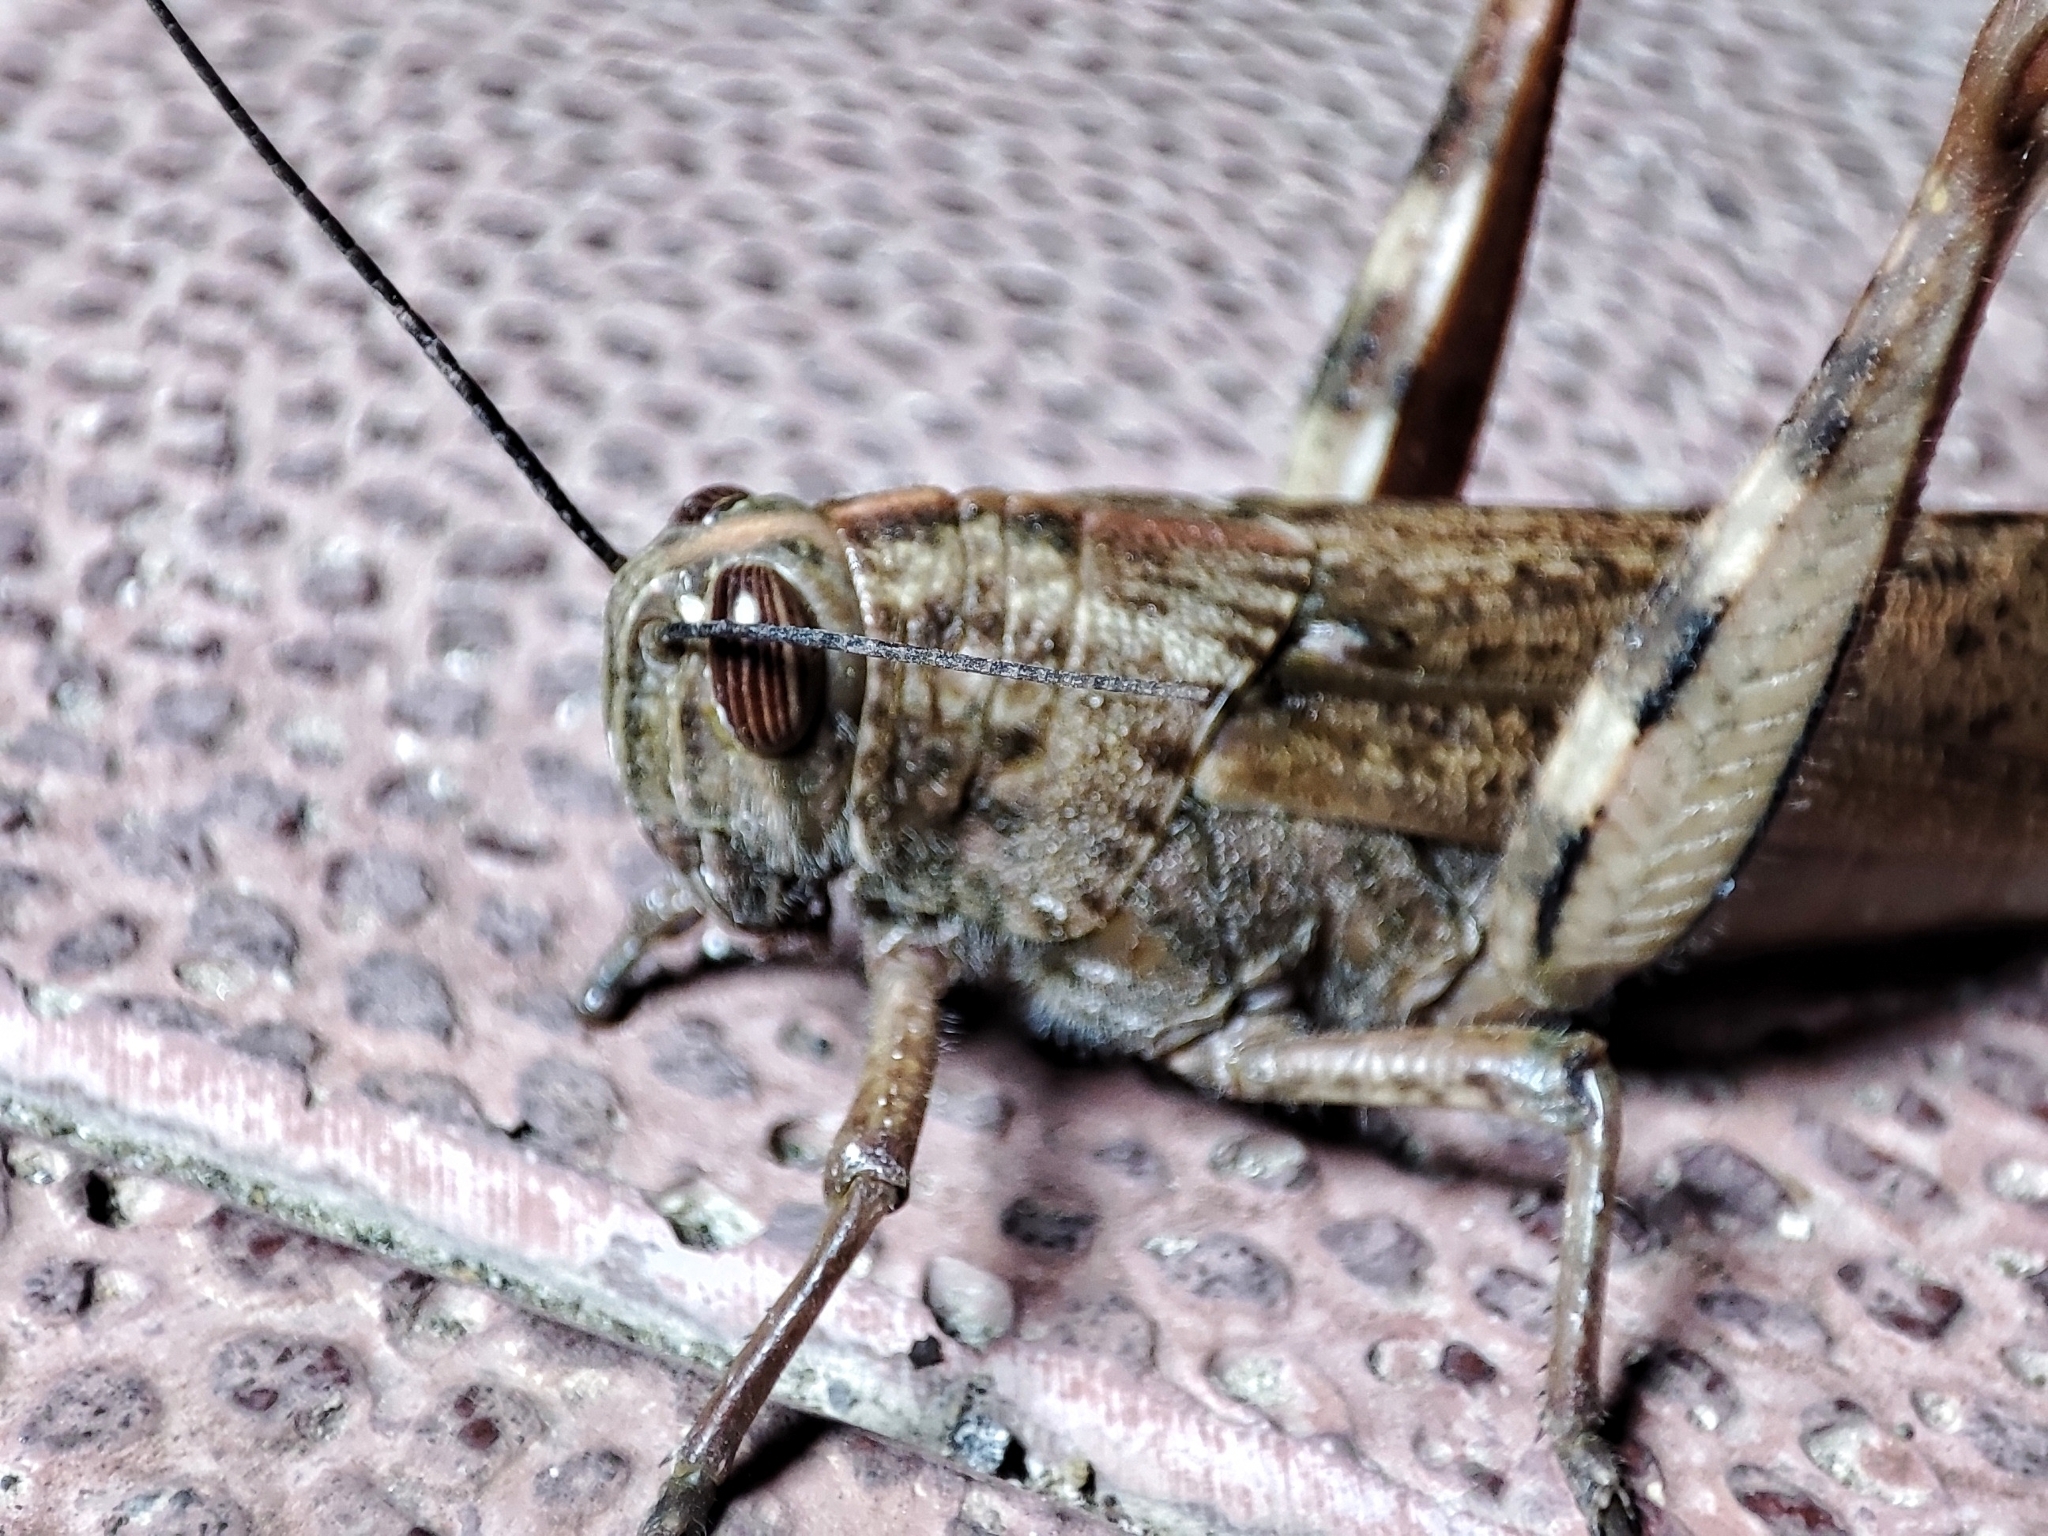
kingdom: Animalia
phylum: Arthropoda
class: Insecta
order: Orthoptera
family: Acrididae
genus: Anacridium
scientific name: Anacridium aegyptium
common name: Egyptian grasshopper
